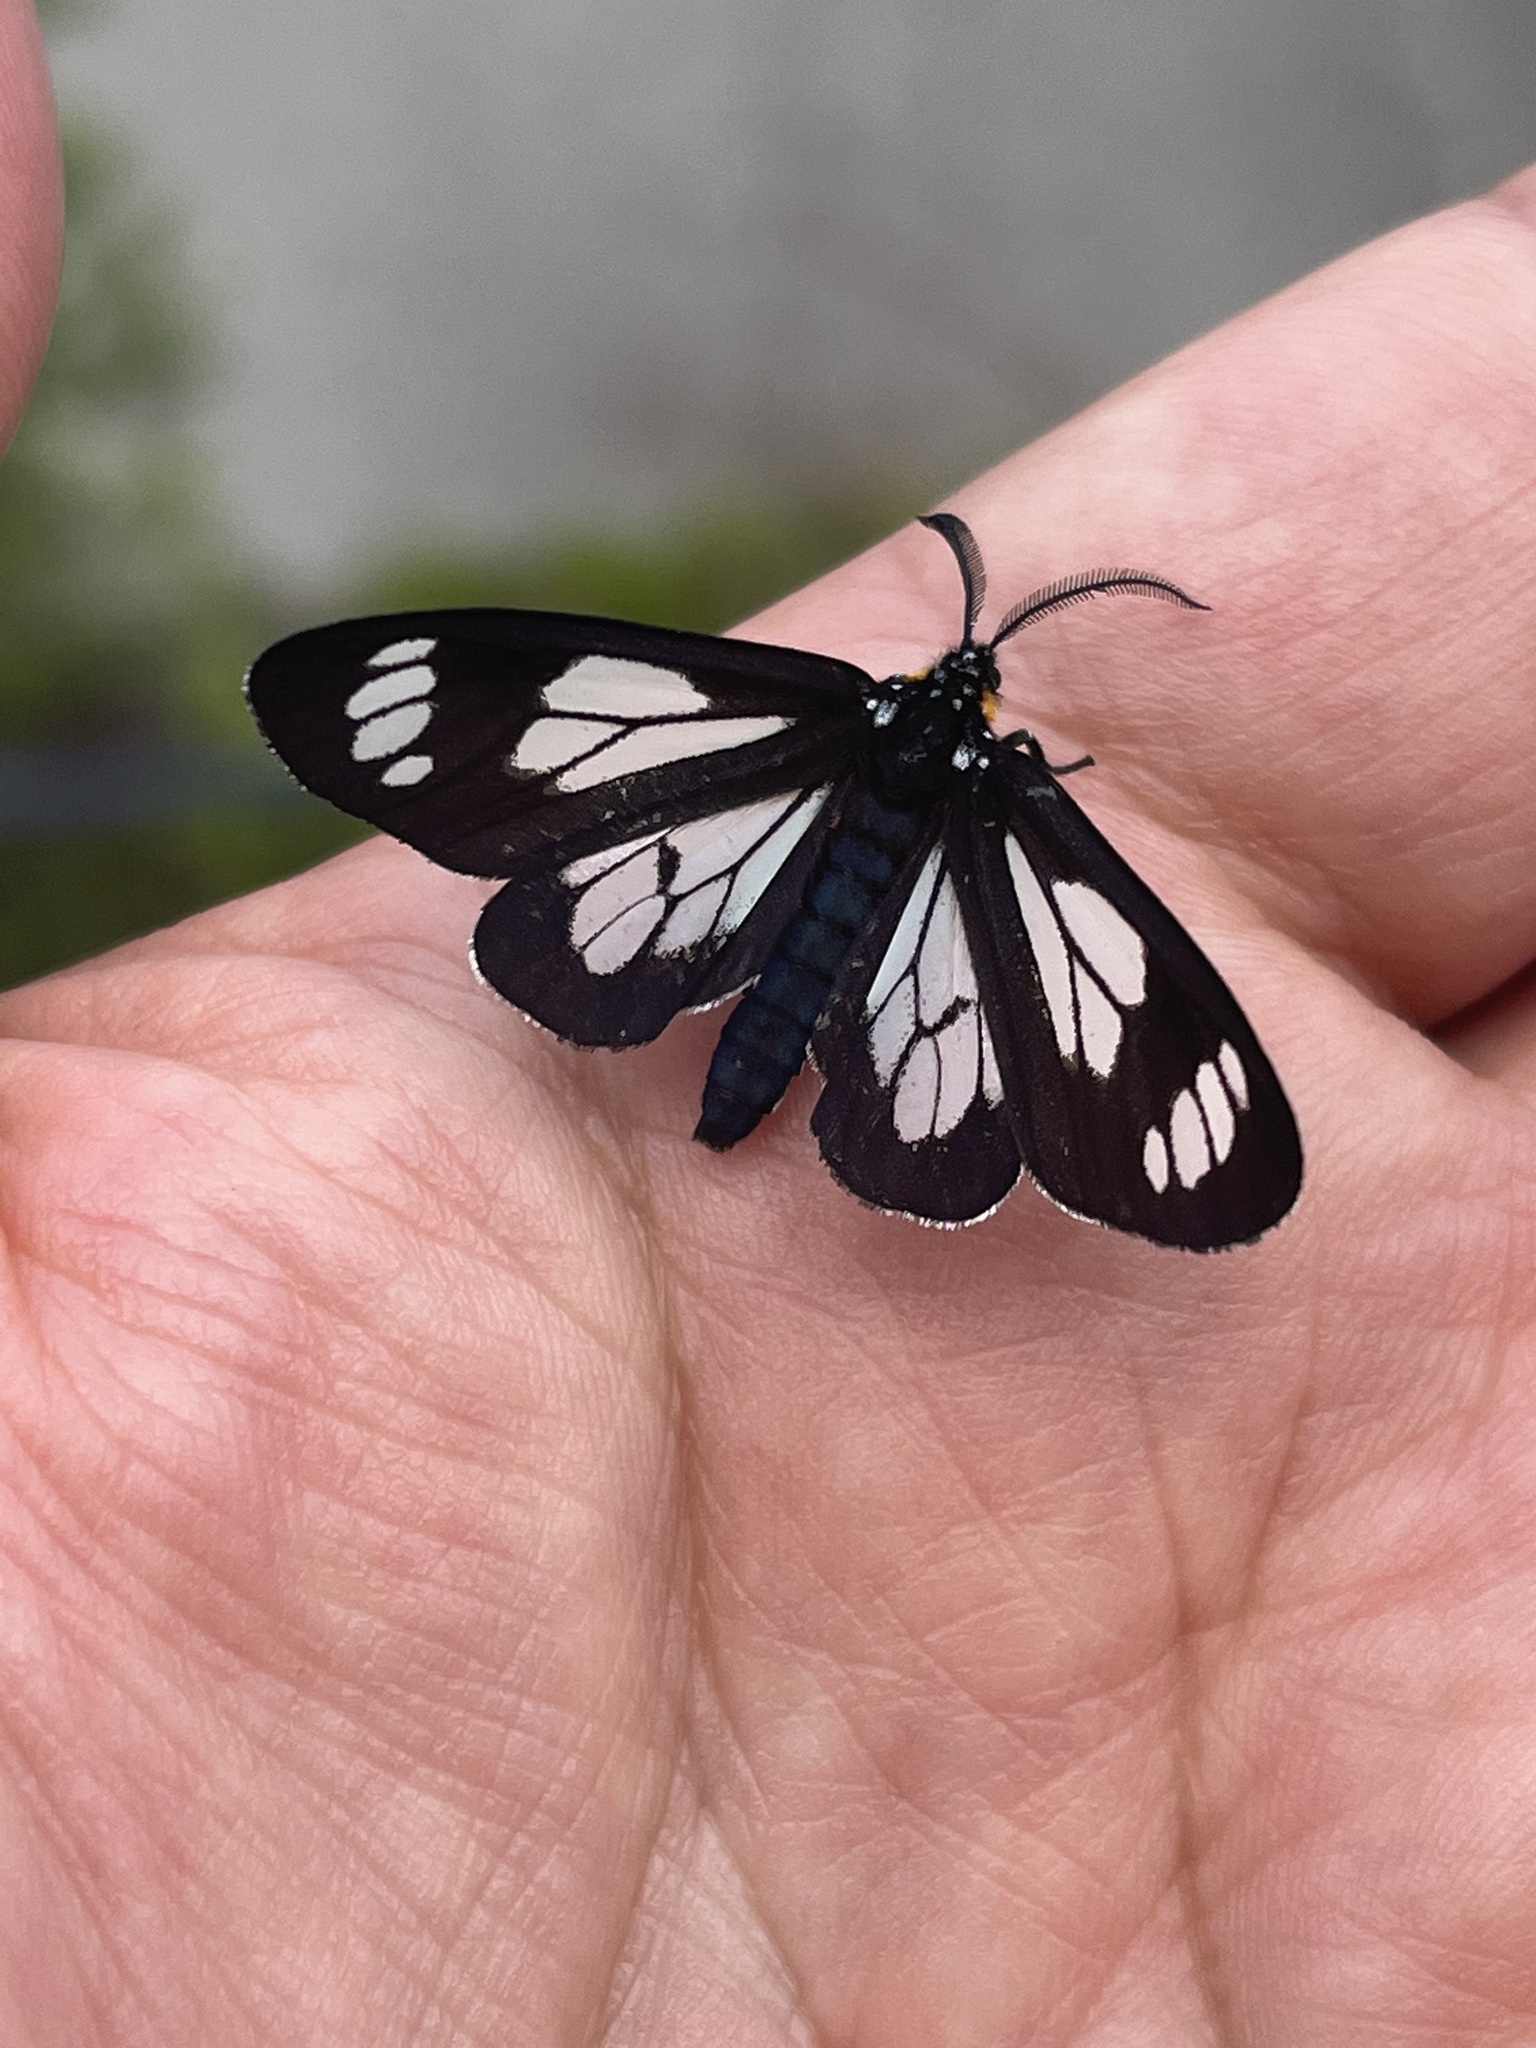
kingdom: Animalia
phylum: Arthropoda
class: Insecta
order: Lepidoptera
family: Erebidae
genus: Gnophaela
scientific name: Gnophaela vermiculata
